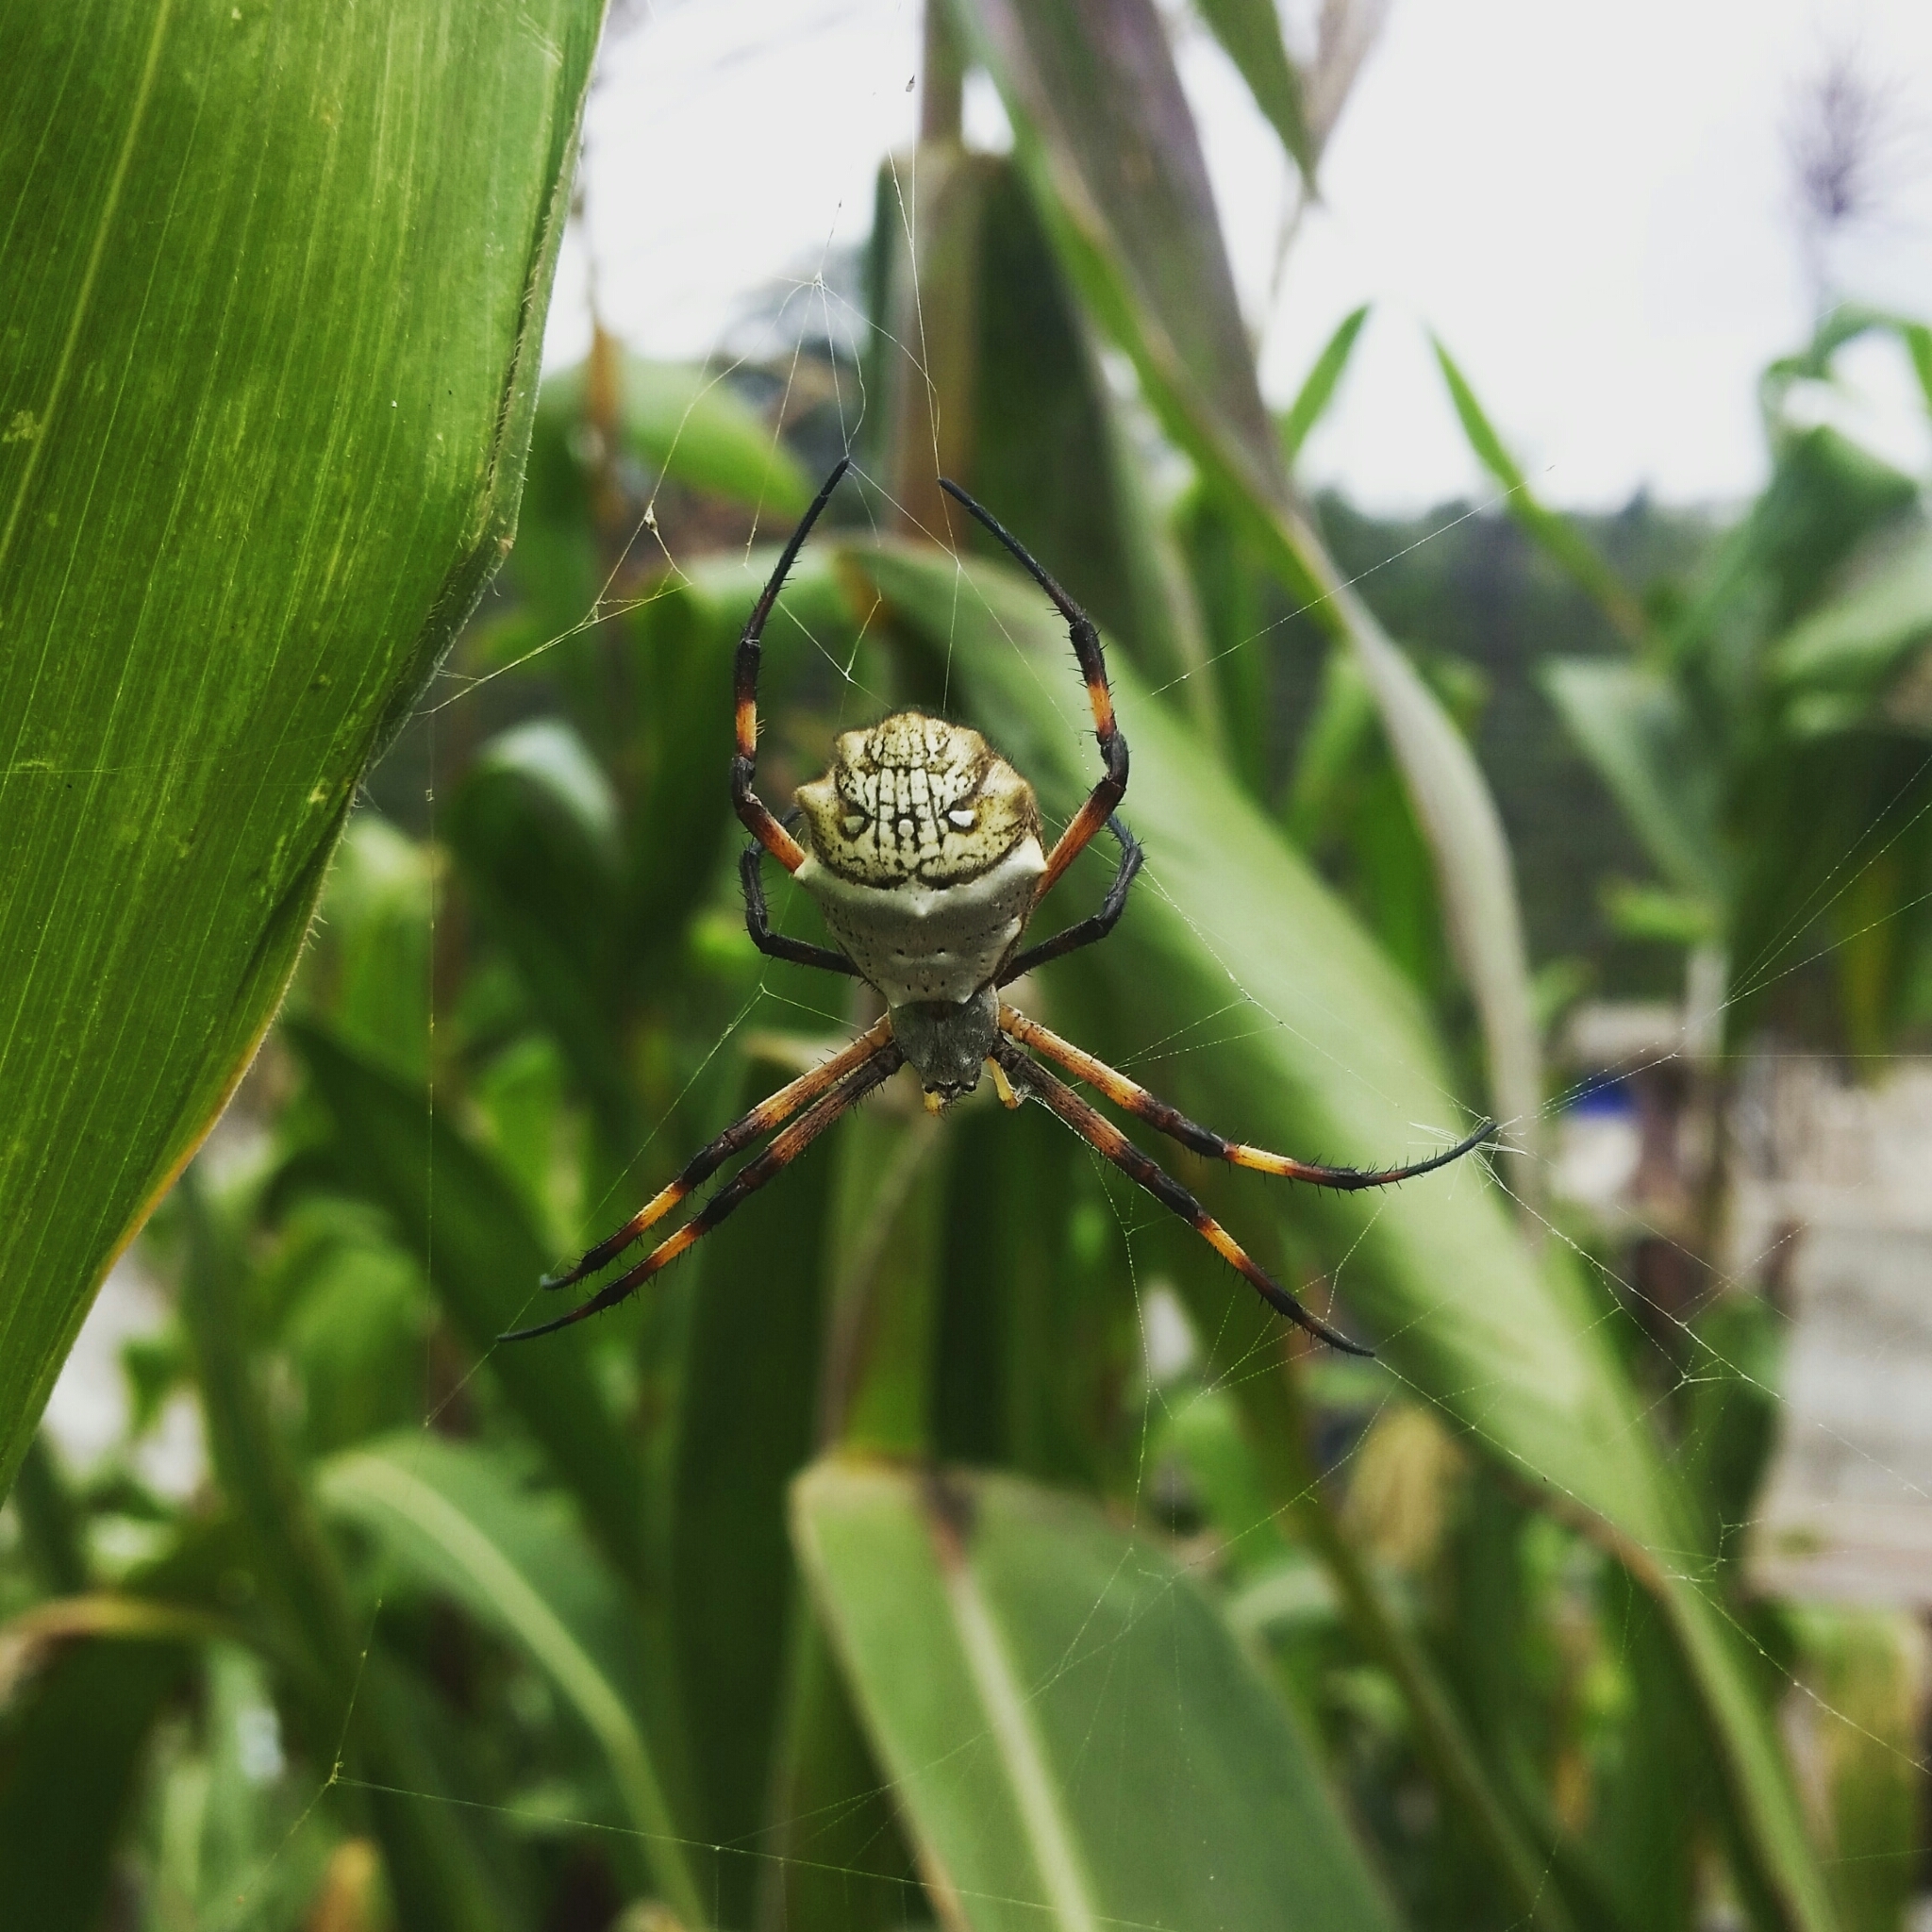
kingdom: Animalia
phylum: Arthropoda
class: Arachnida
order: Araneae
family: Araneidae
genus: Argiope
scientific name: Argiope argentata
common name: Orb weavers
